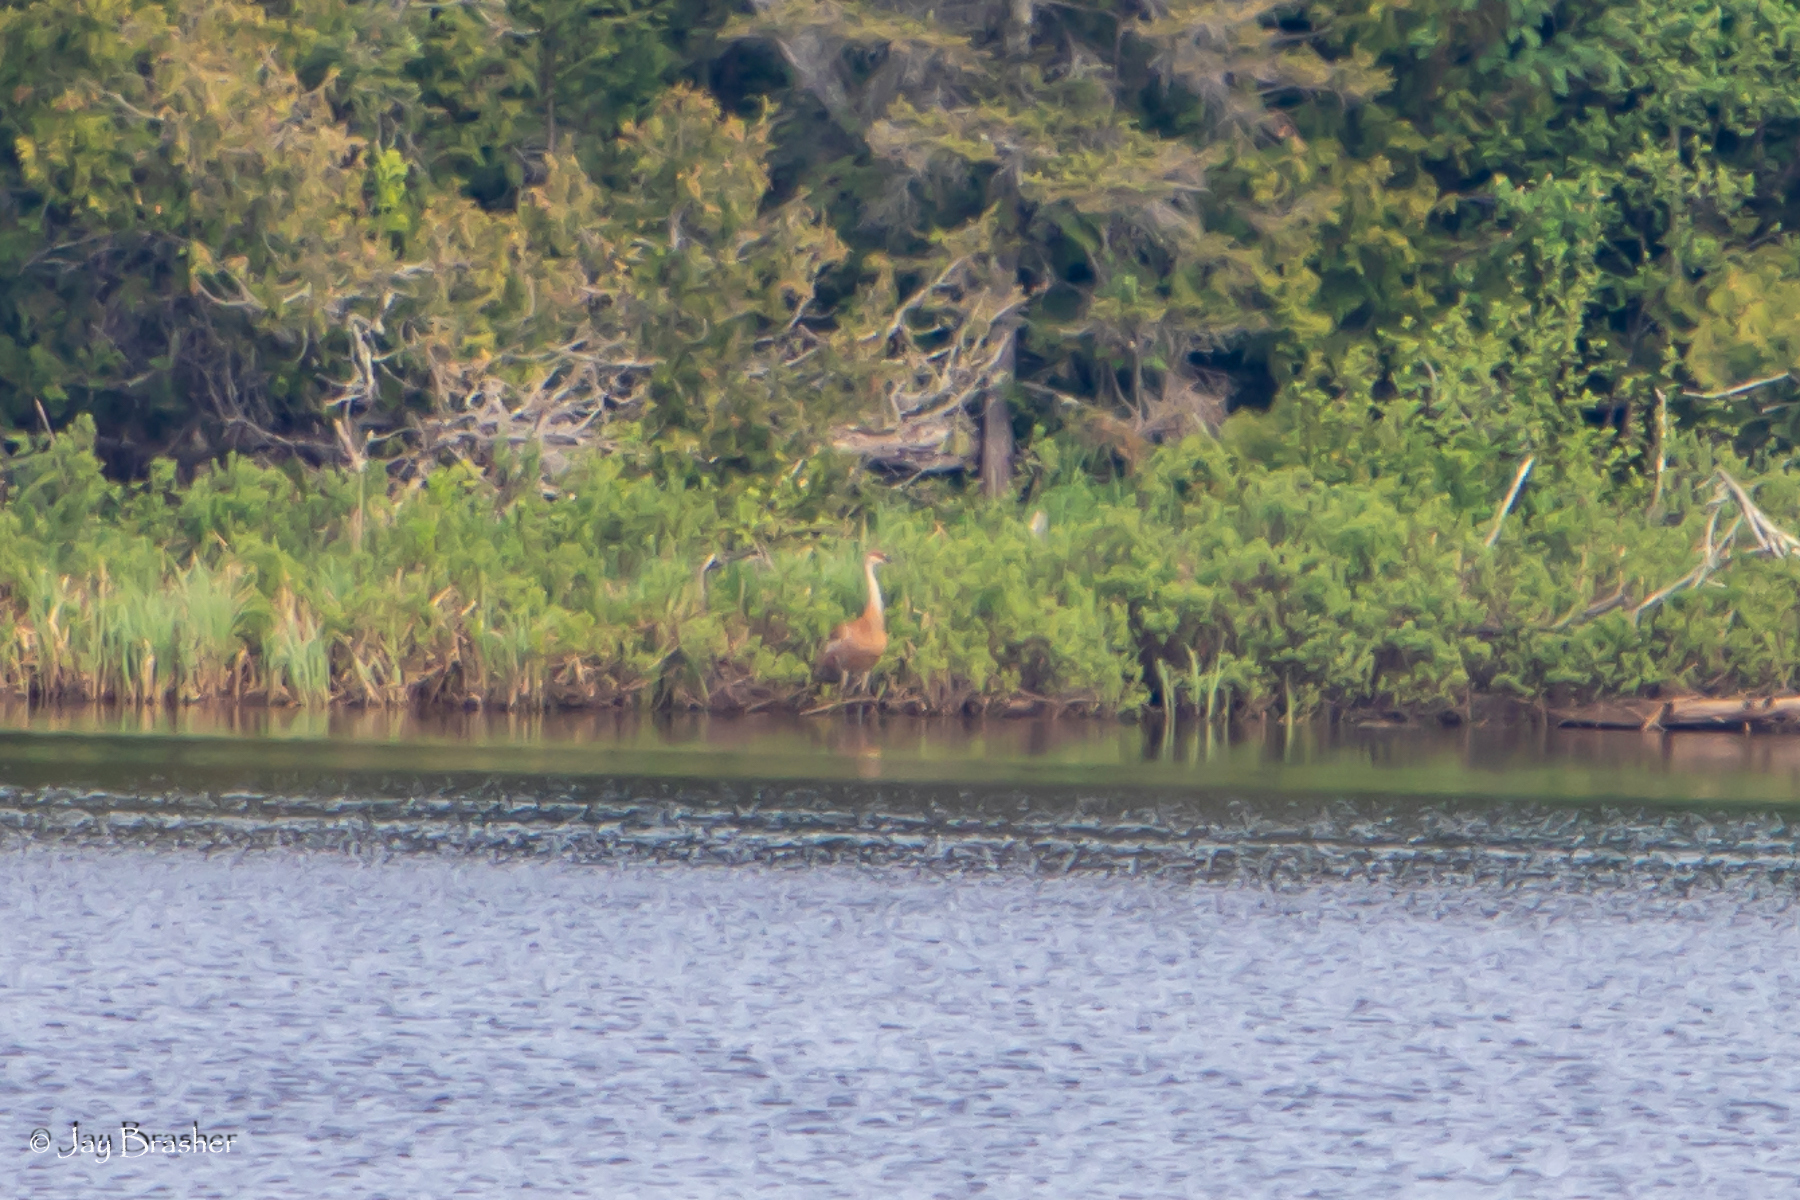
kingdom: Animalia
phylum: Chordata
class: Aves
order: Gruiformes
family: Gruidae
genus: Grus
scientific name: Grus canadensis
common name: Sandhill crane
